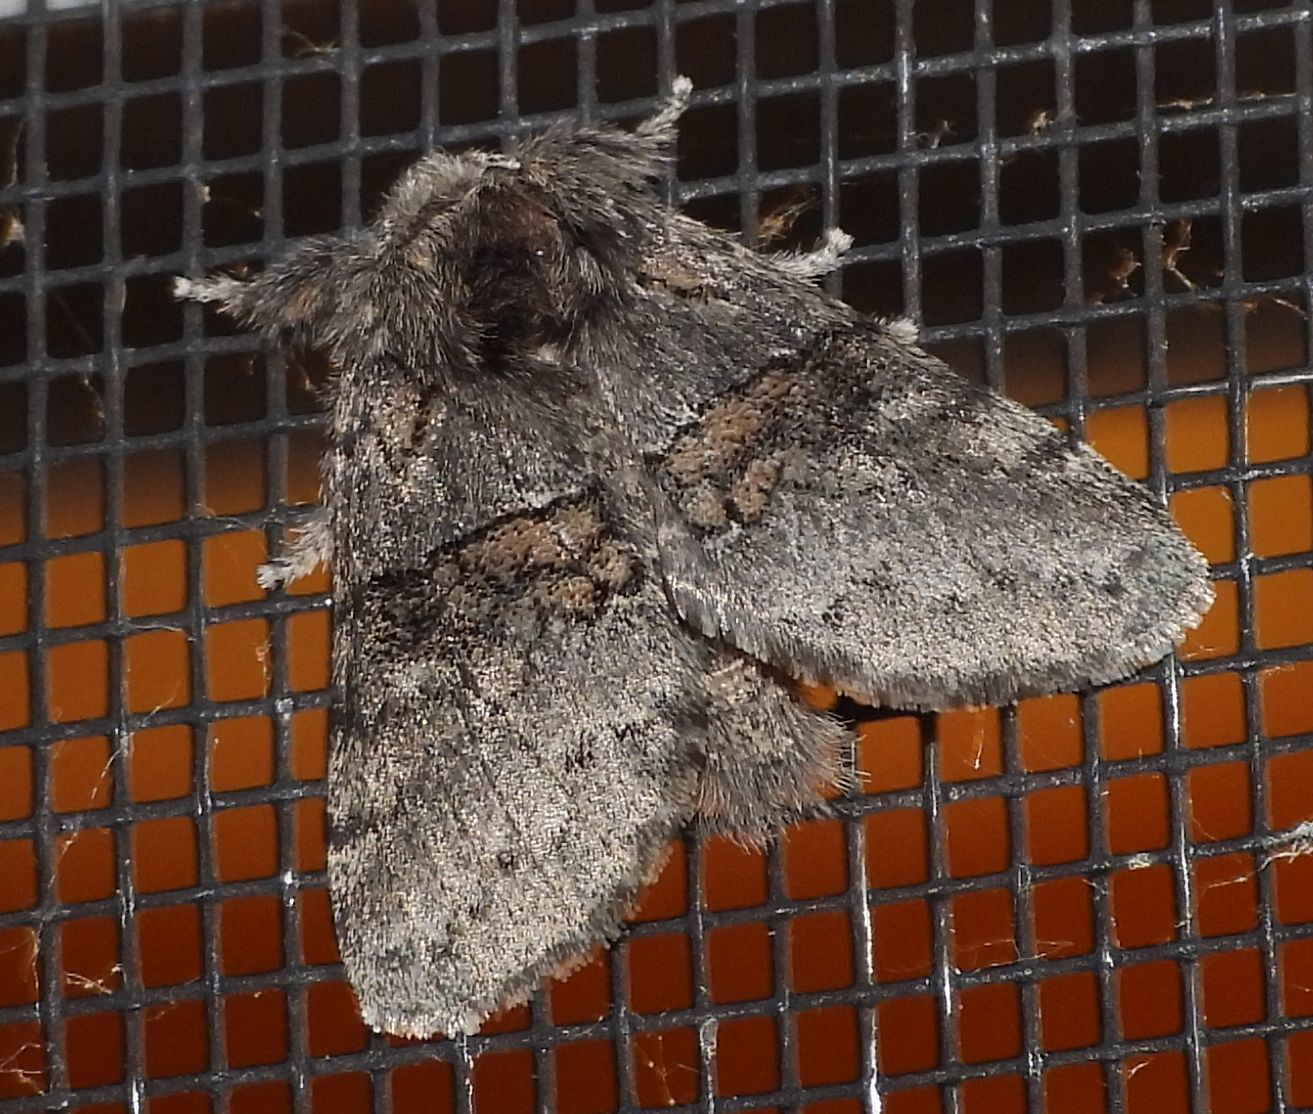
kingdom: Animalia
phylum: Arthropoda
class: Insecta
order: Lepidoptera
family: Notodontidae
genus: Gluphisia
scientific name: Gluphisia septentrionis
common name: Common gluphisia
